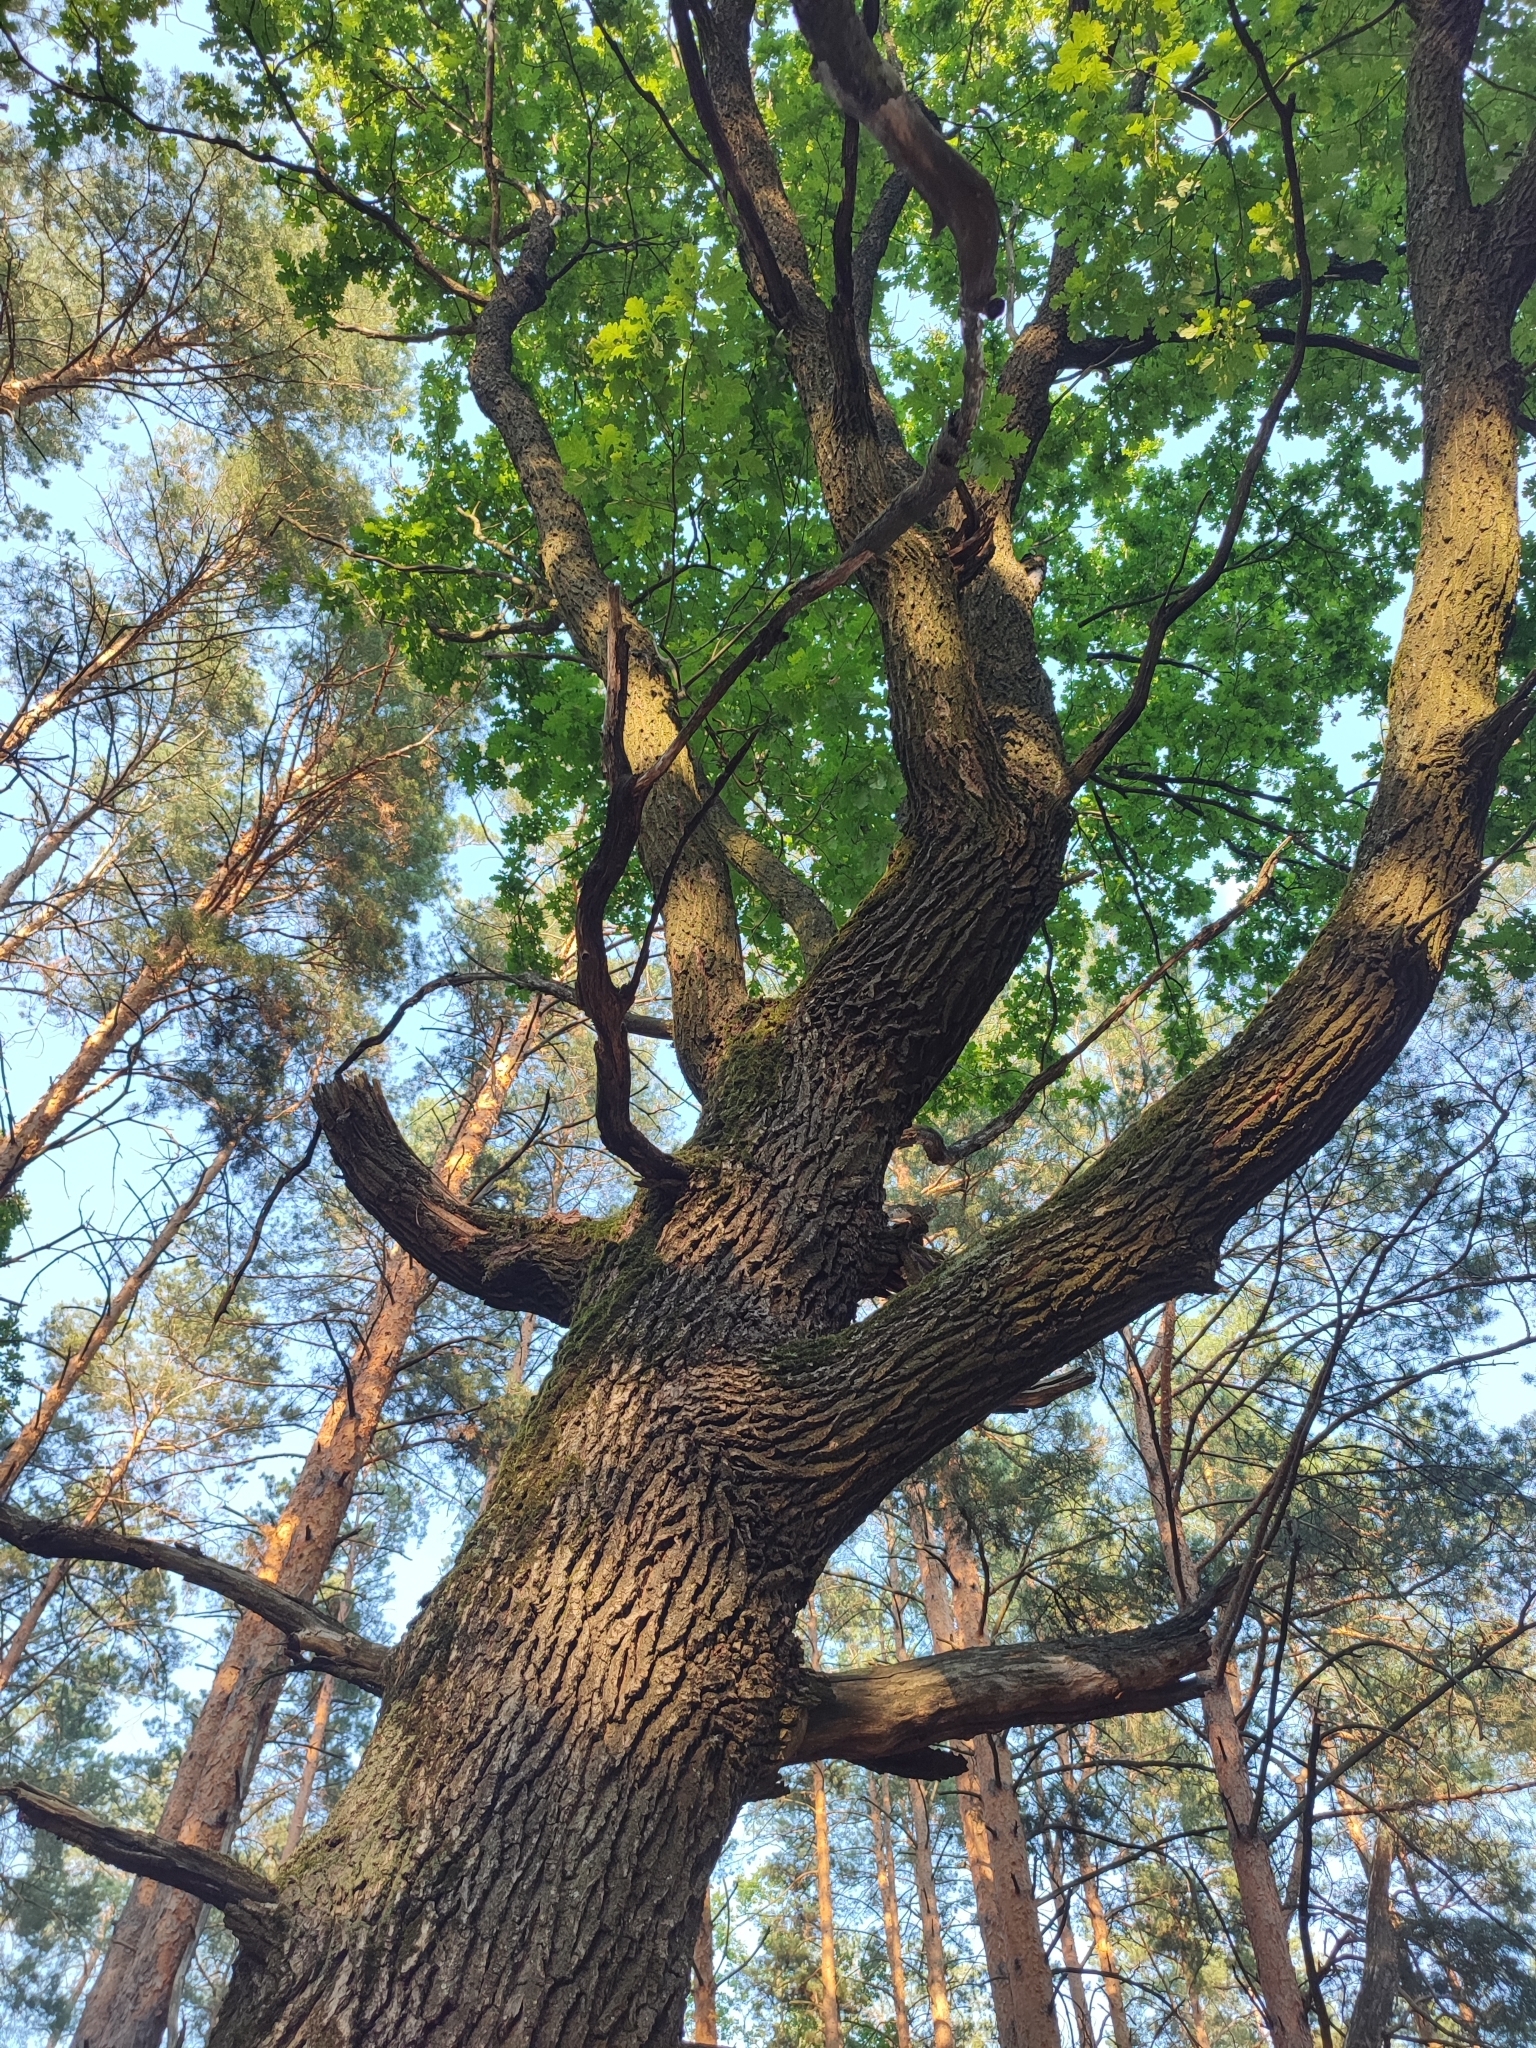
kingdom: Plantae
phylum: Tracheophyta
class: Magnoliopsida
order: Fagales
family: Fagaceae
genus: Quercus
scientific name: Quercus robur
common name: Pedunculate oak
